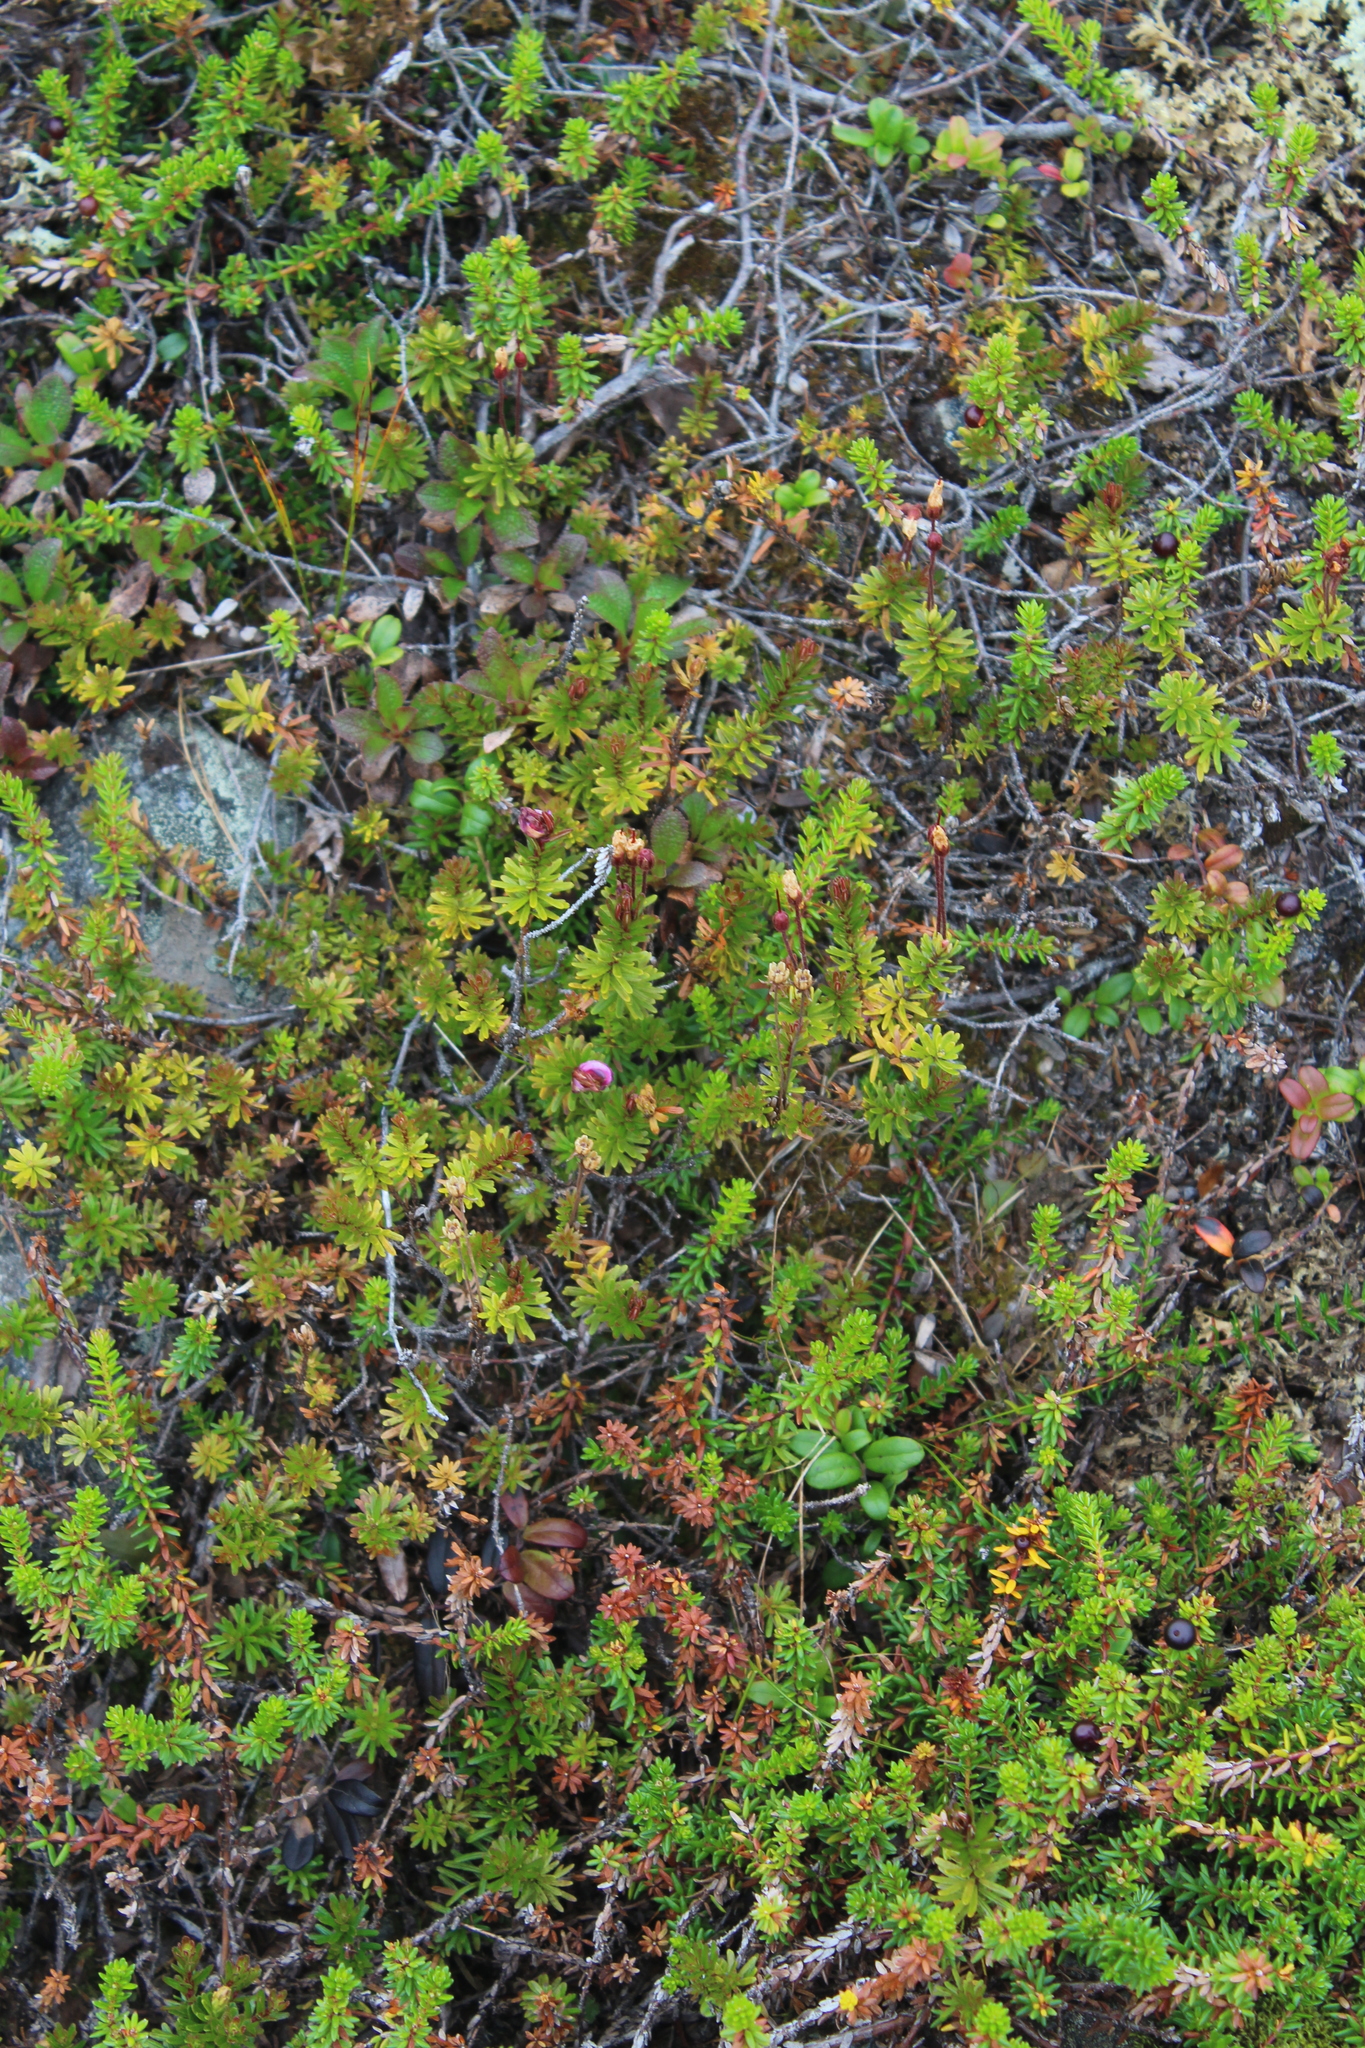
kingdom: Plantae
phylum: Tracheophyta
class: Magnoliopsida
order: Ericales
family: Ericaceae
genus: Phyllodoce
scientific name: Phyllodoce caerulea
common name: Blue heath
